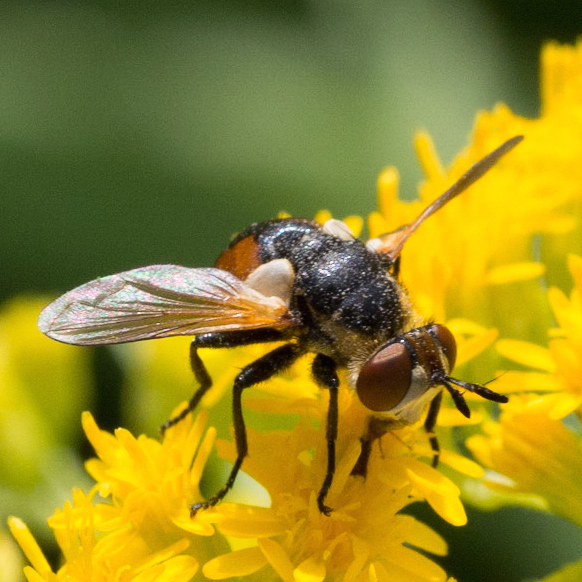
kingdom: Animalia
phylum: Arthropoda
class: Insecta
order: Diptera
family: Tachinidae
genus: Gymnosoma
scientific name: Gymnosoma
